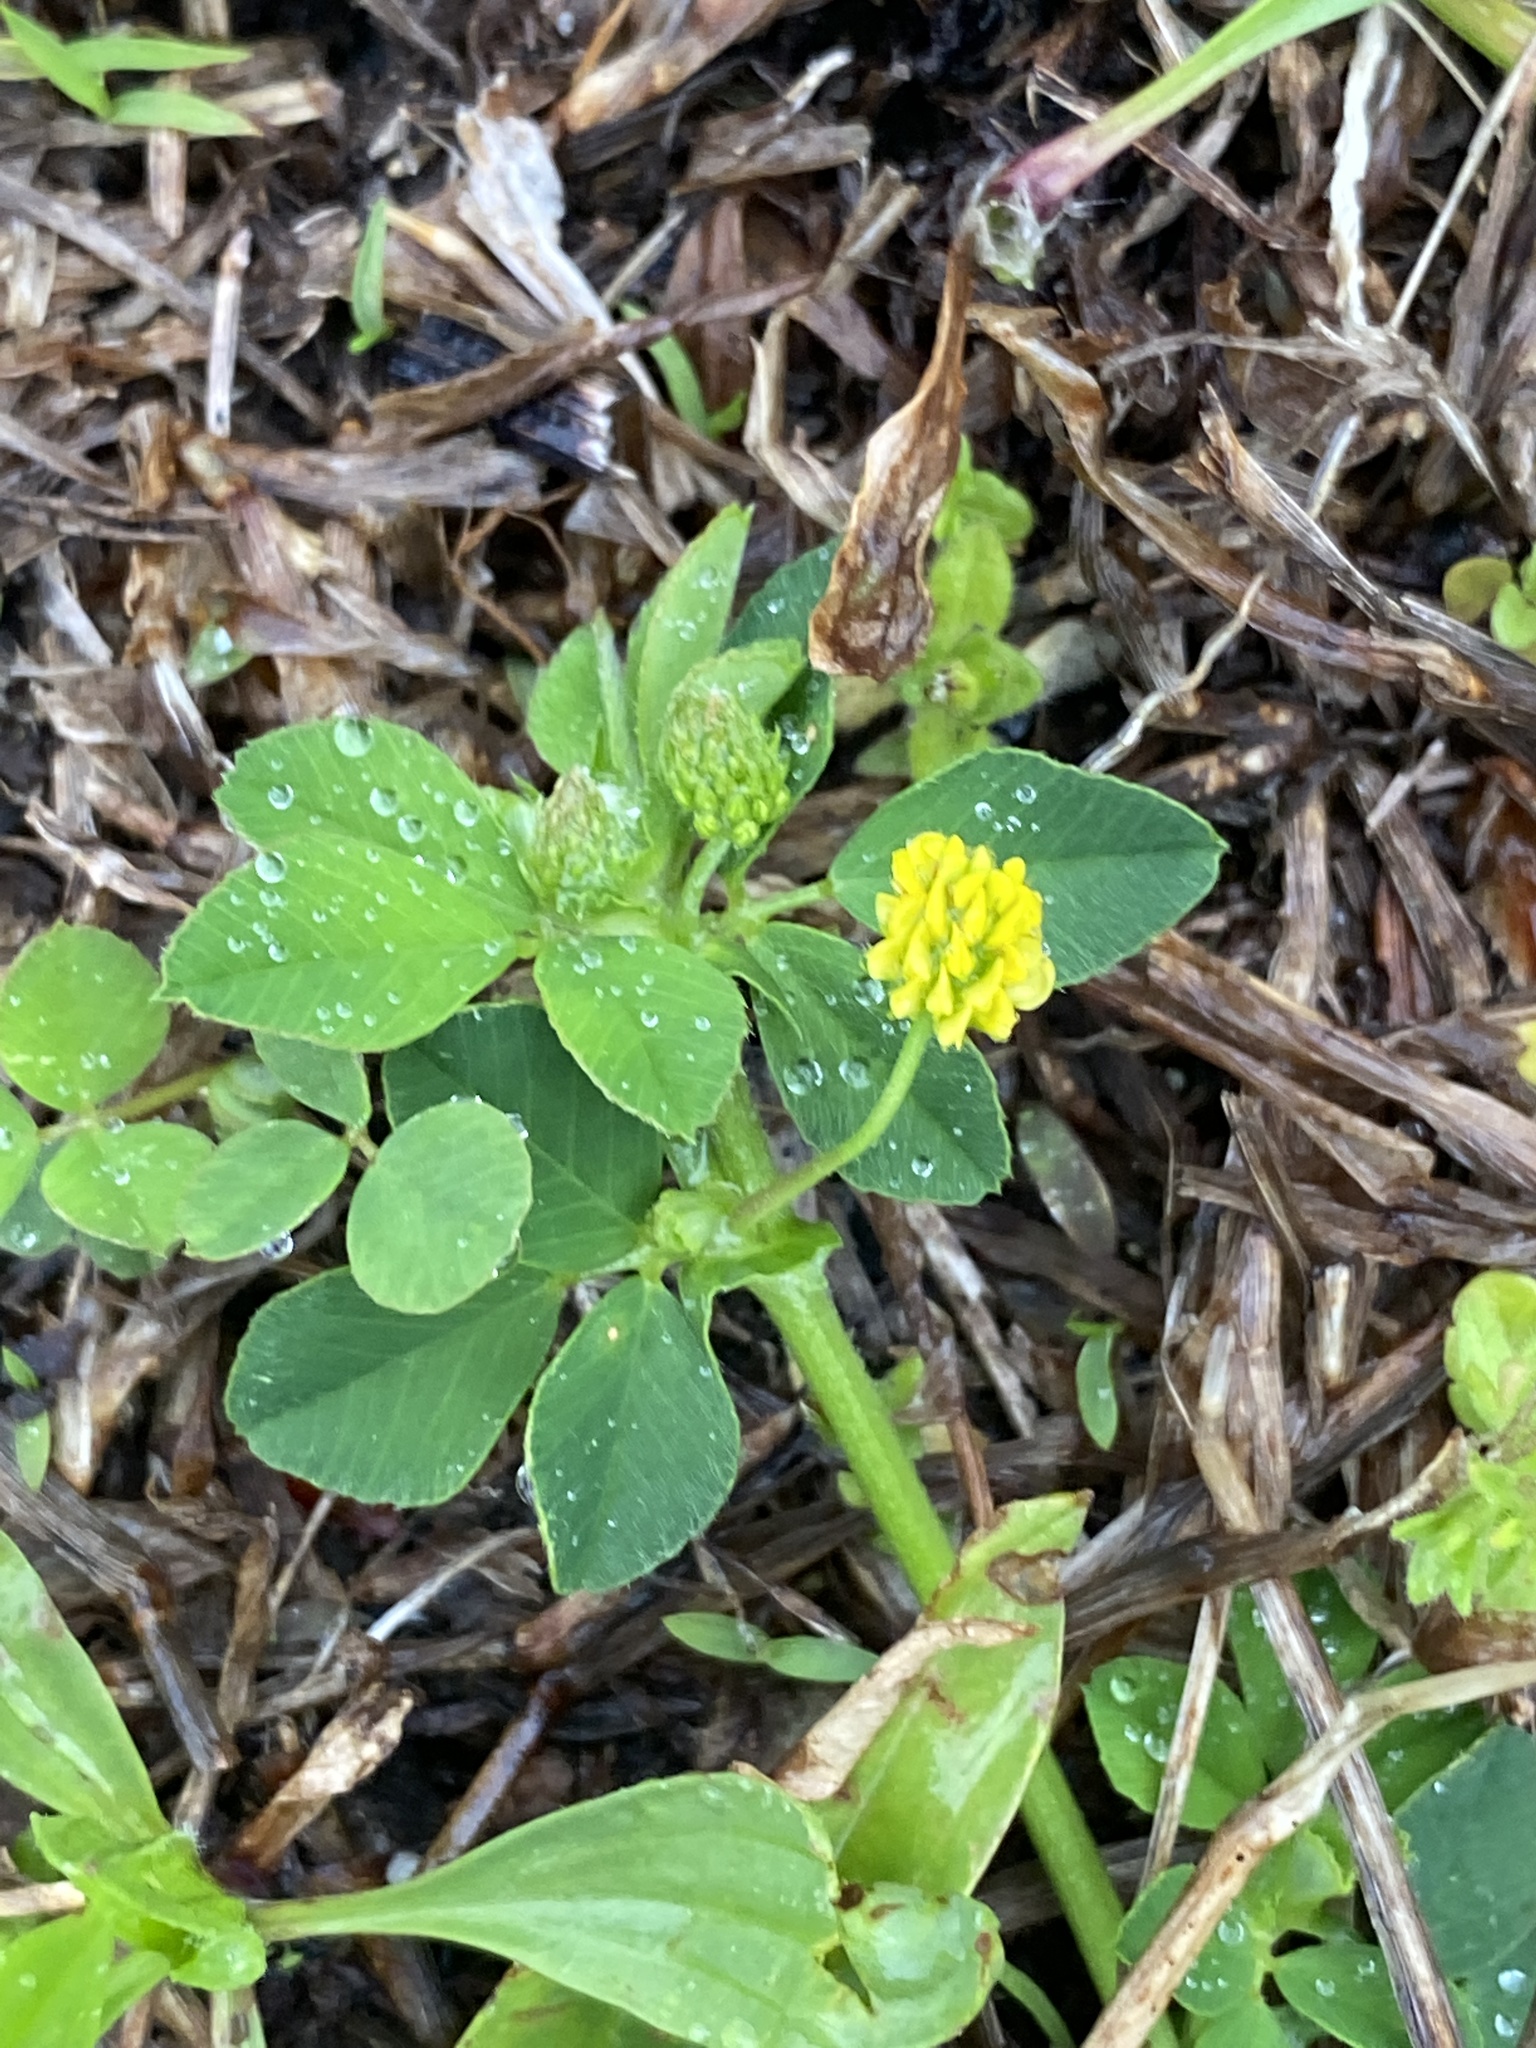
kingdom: Plantae
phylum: Tracheophyta
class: Magnoliopsida
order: Fabales
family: Fabaceae
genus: Medicago
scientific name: Medicago lupulina
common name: Black medick
